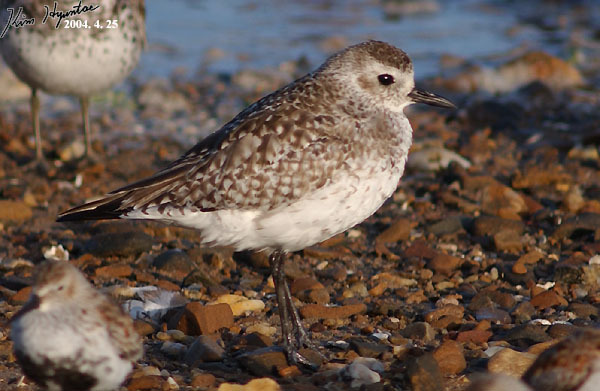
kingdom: Animalia
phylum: Chordata
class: Aves
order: Charadriiformes
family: Charadriidae
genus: Pluvialis
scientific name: Pluvialis squatarola
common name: Grey plover
